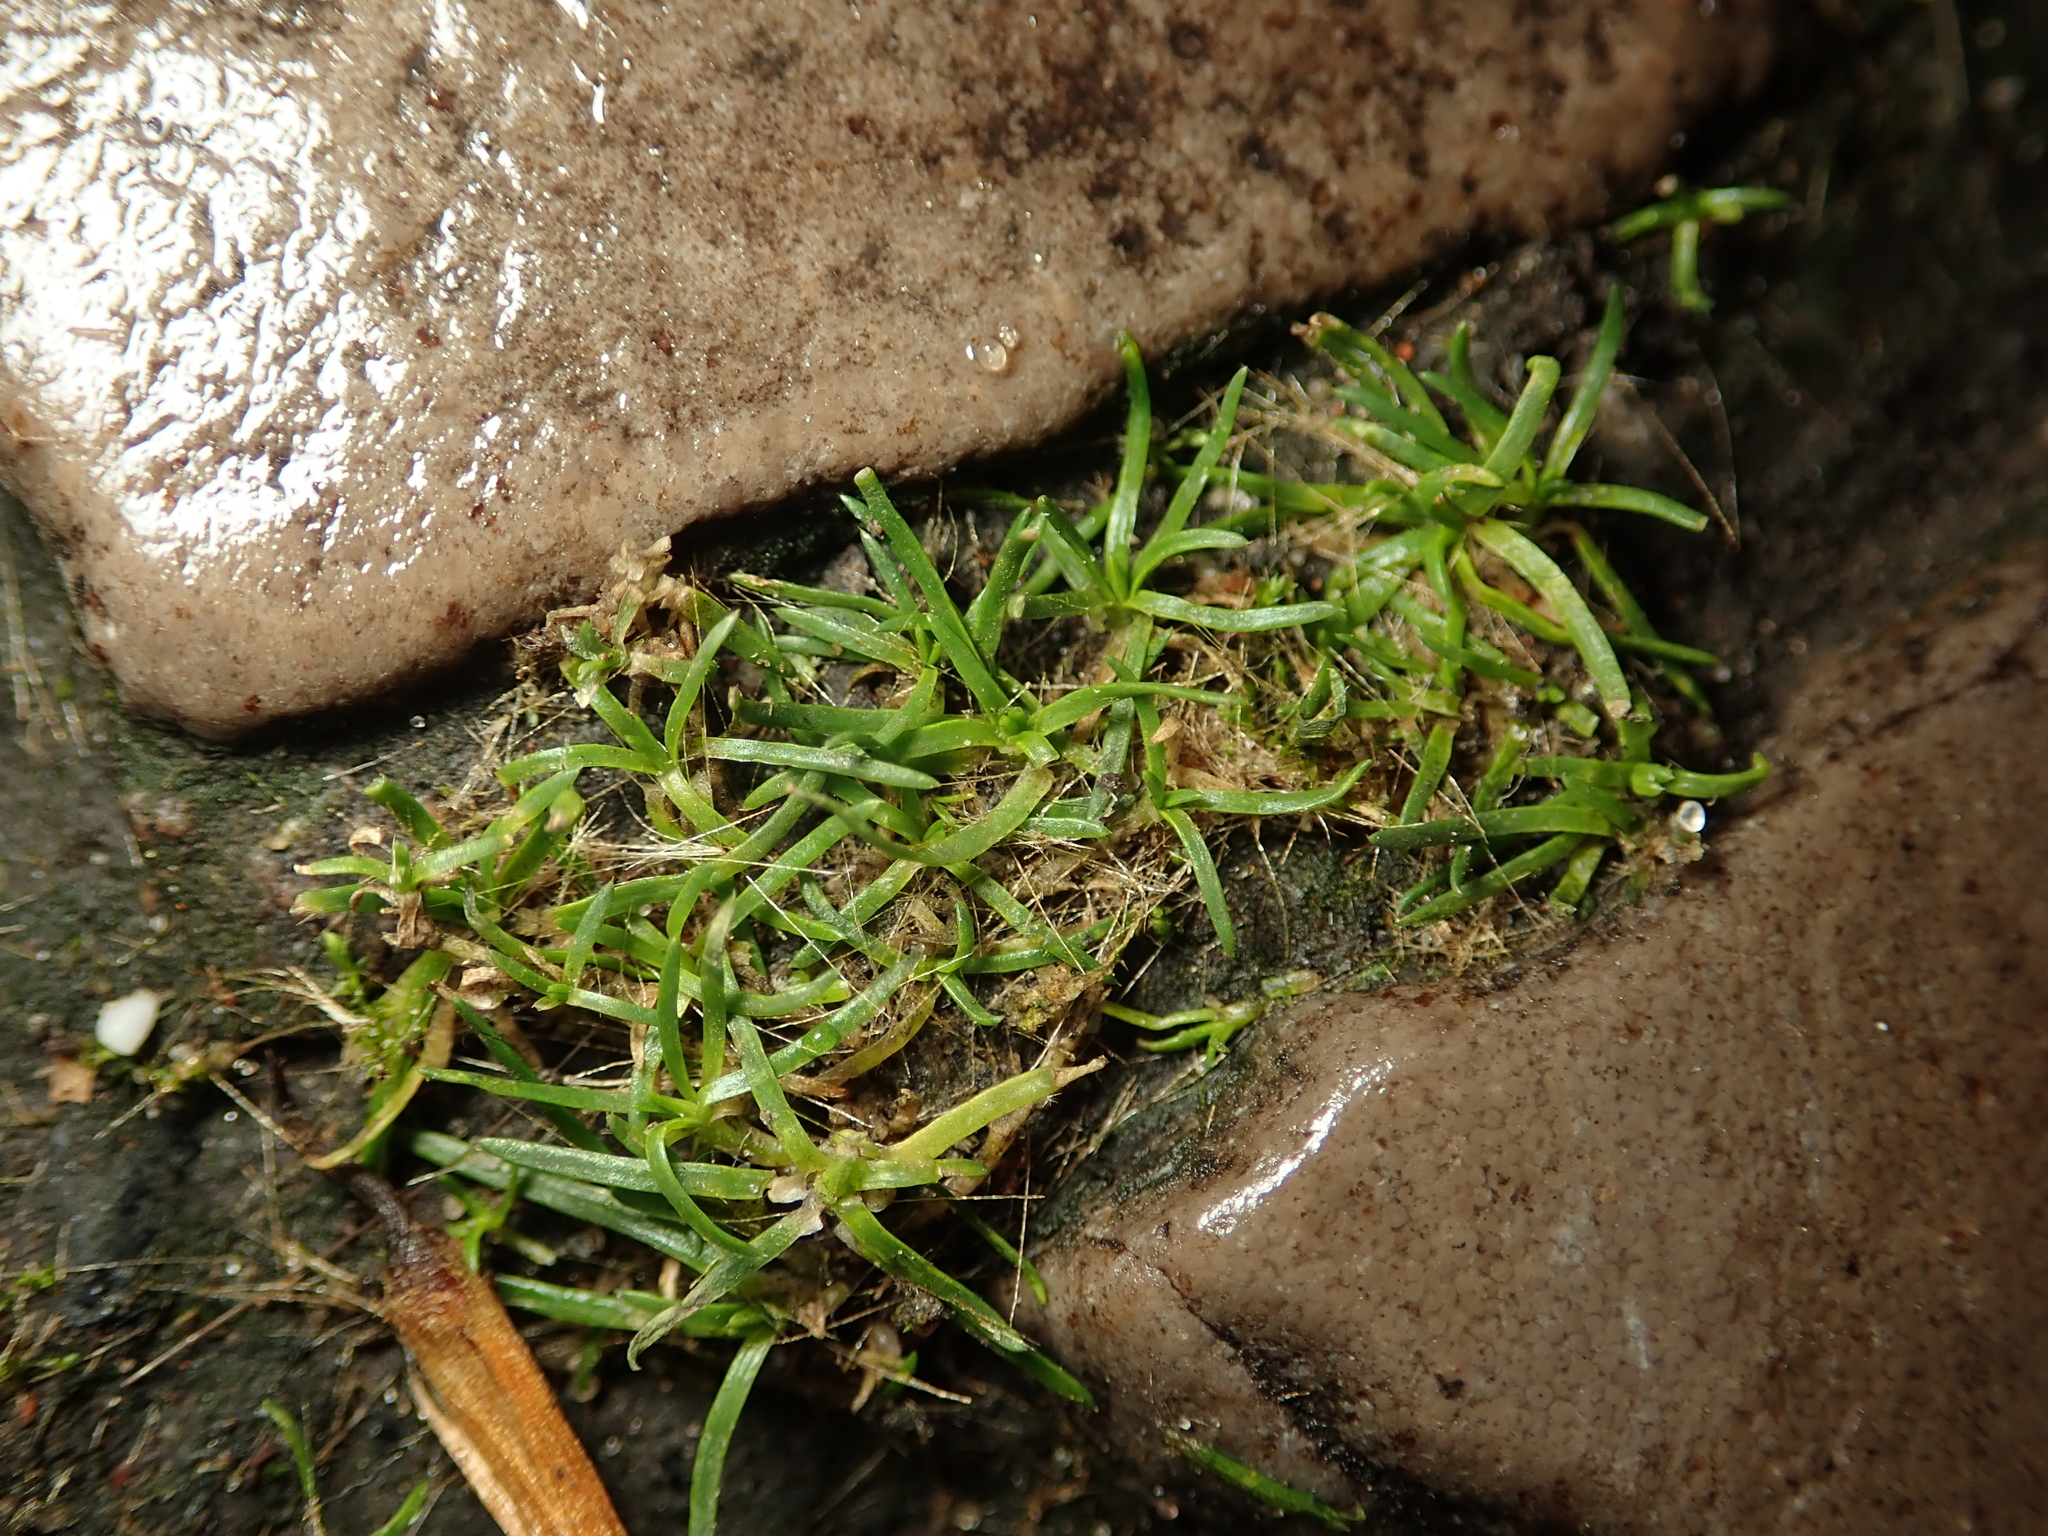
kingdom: Plantae
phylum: Tracheophyta
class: Magnoliopsida
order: Caryophyllales
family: Caryophyllaceae
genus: Sagina
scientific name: Sagina procumbens
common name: Procumbent pearlwort
